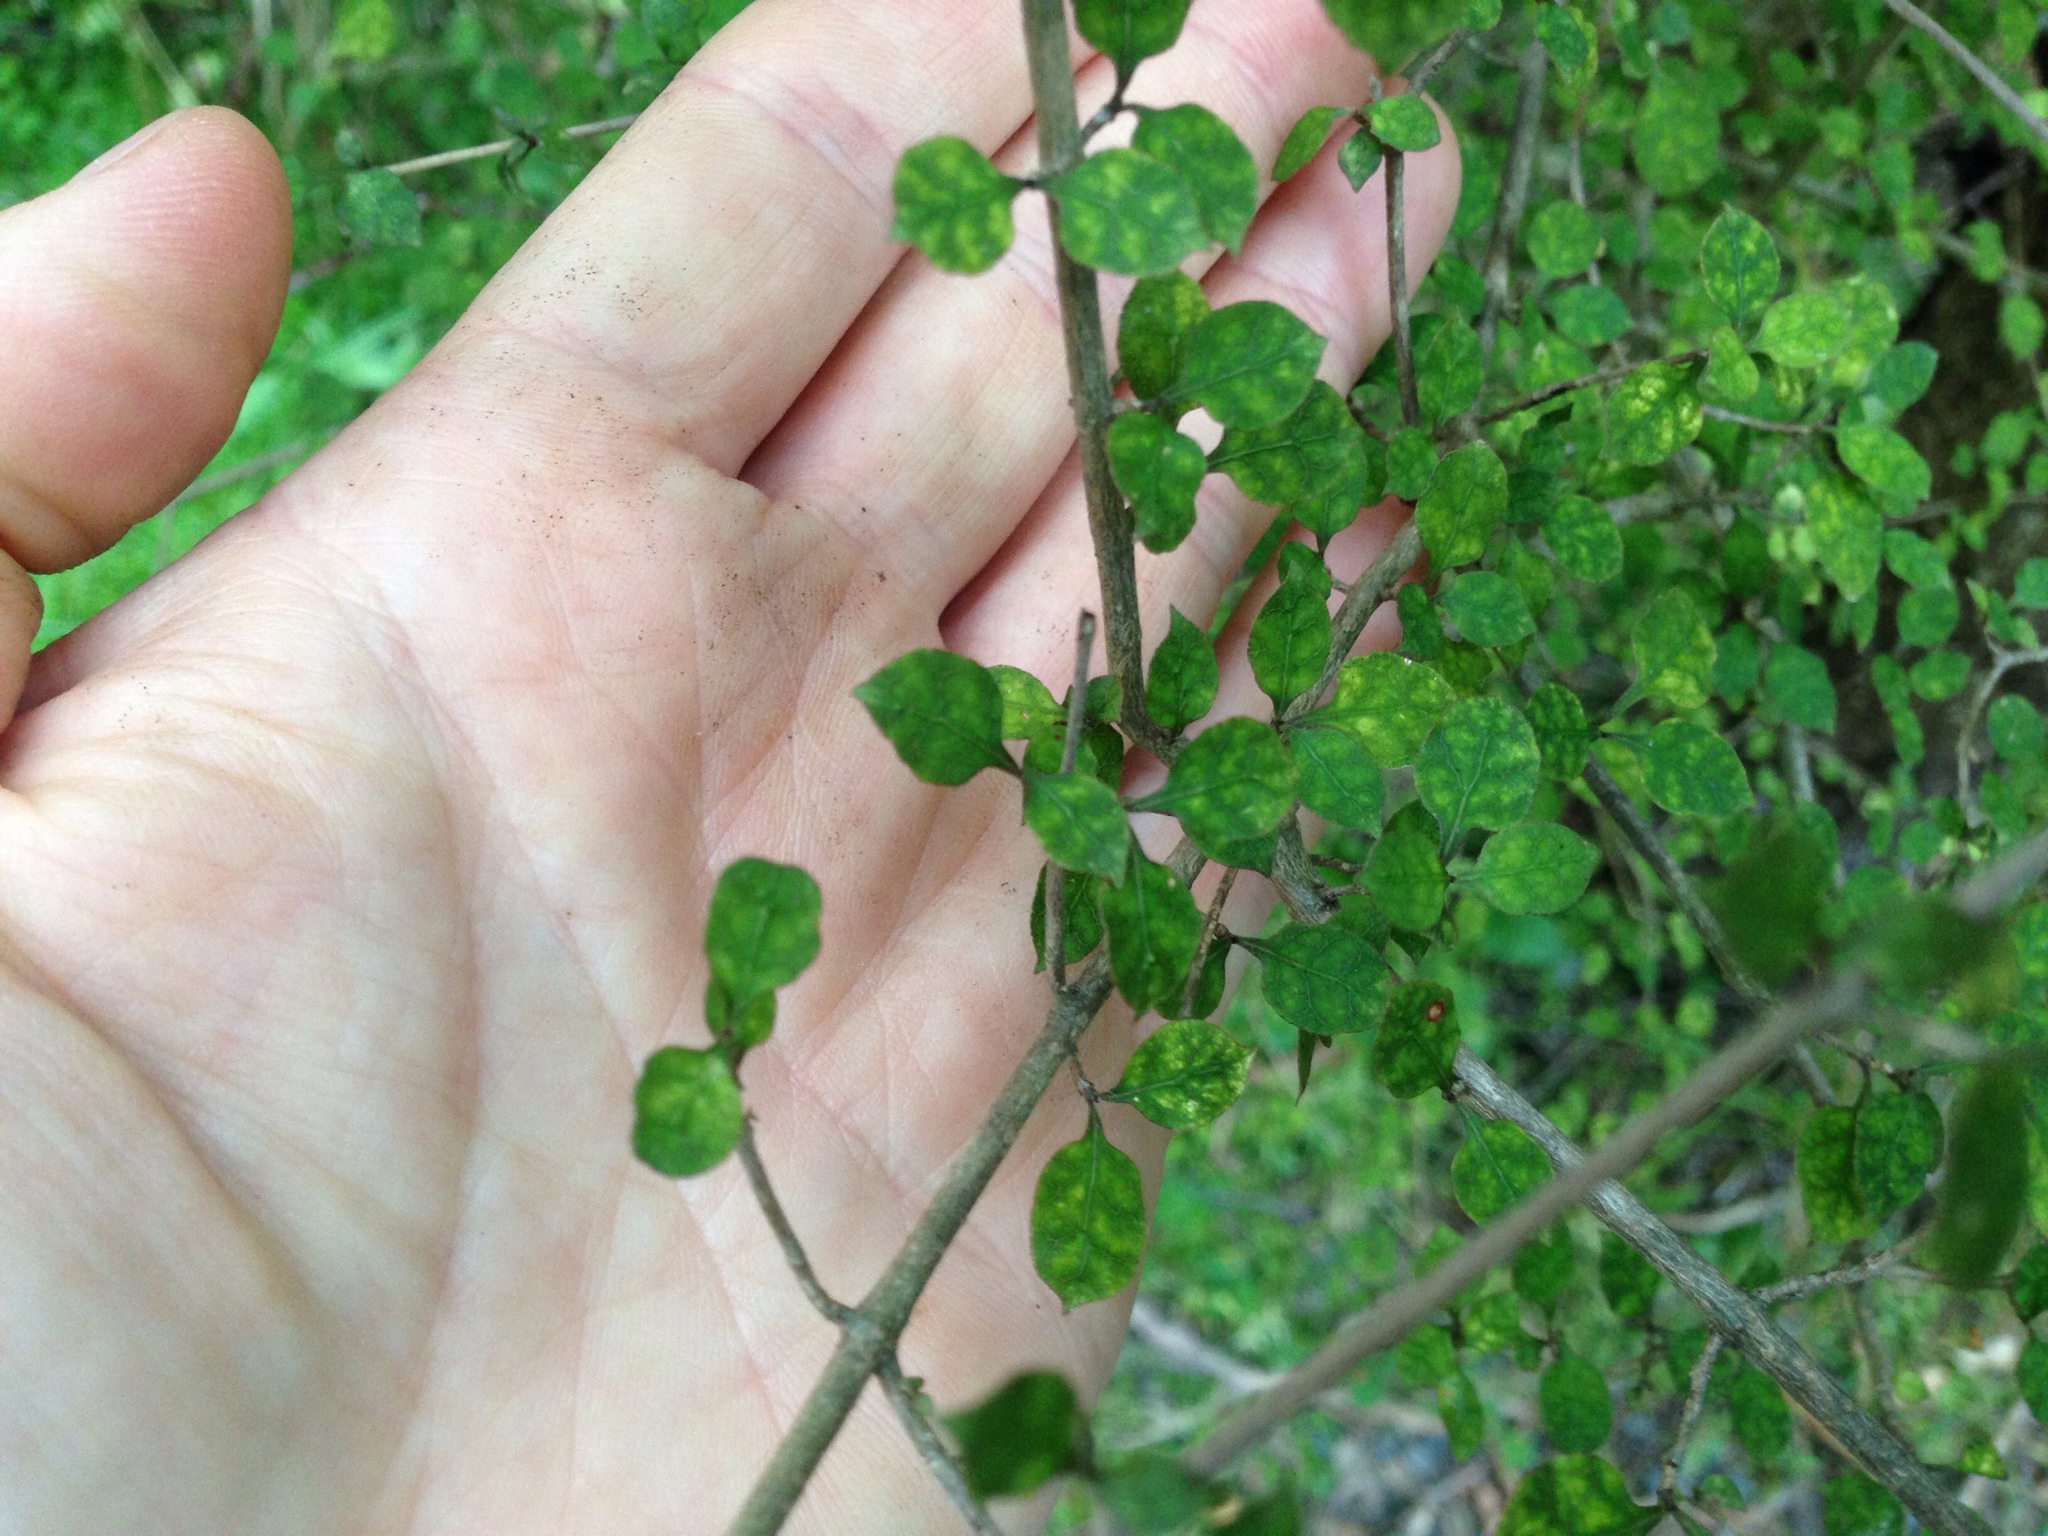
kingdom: Plantae
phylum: Tracheophyta
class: Magnoliopsida
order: Gentianales
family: Rubiaceae
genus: Coprosma
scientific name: Coprosma areolata
